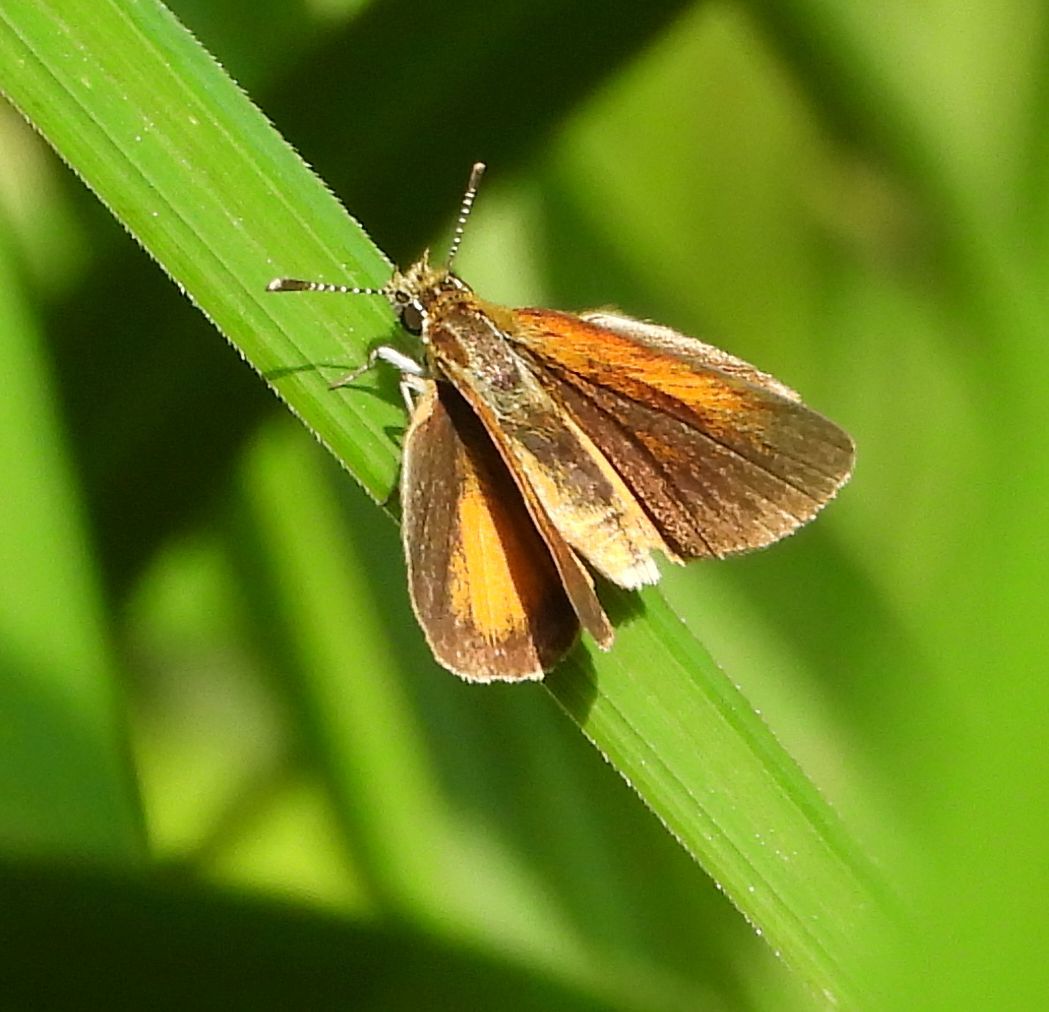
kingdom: Animalia
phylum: Arthropoda
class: Insecta
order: Lepidoptera
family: Hesperiidae
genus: Ancyloxypha
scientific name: Ancyloxypha numitor
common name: Least skipper
